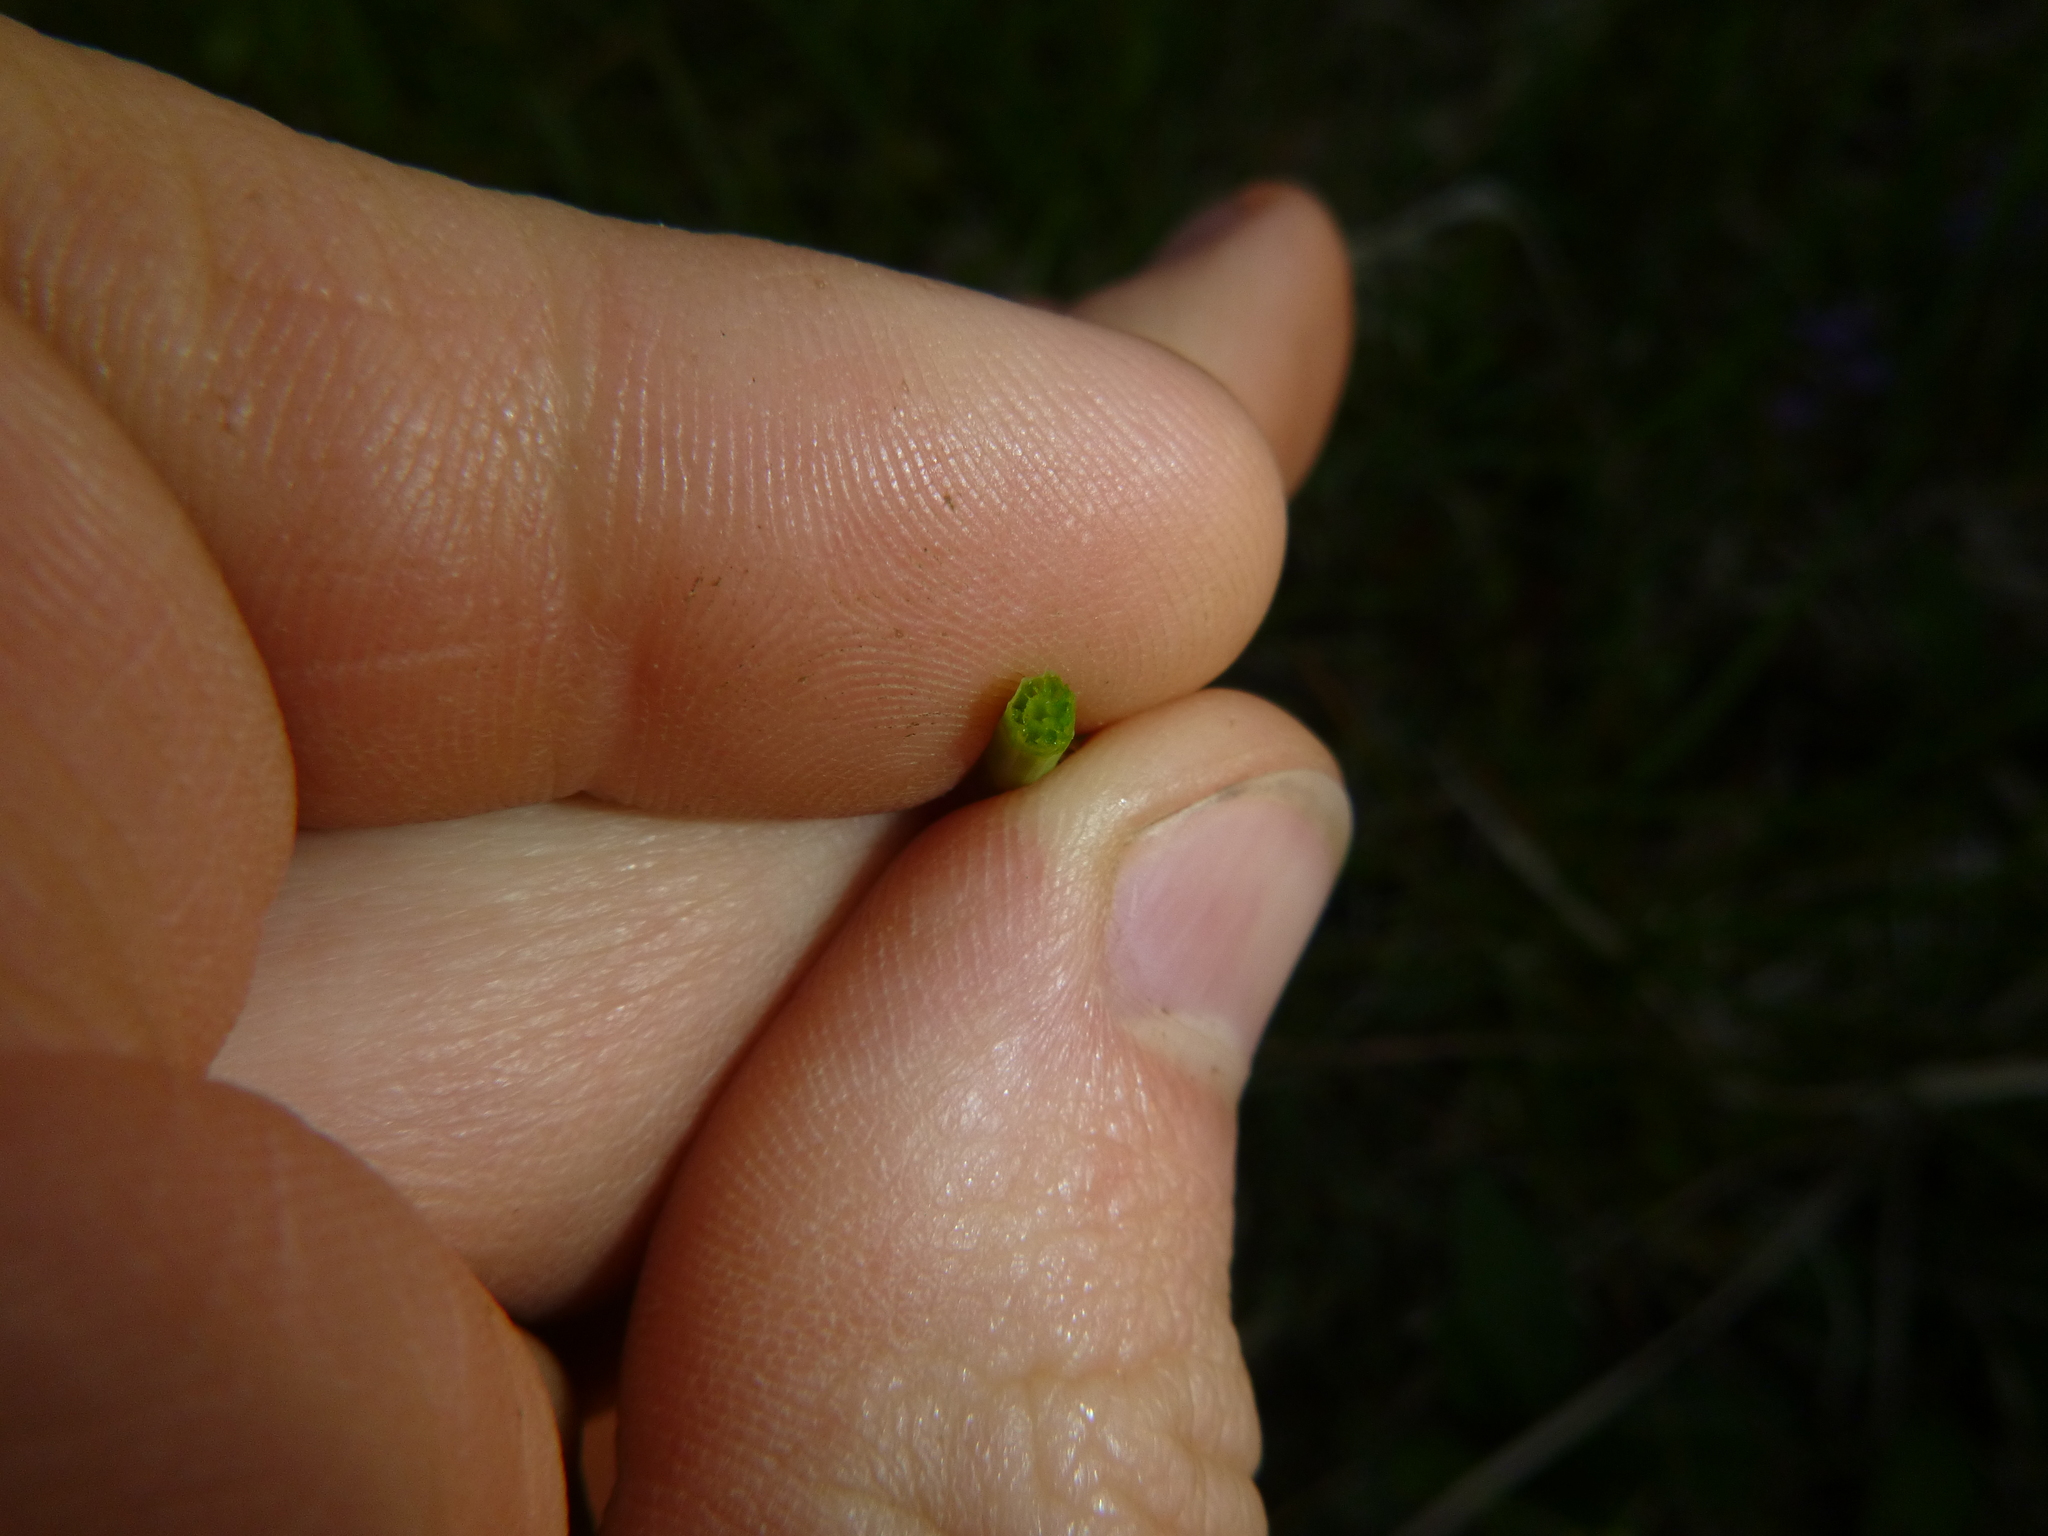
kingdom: Plantae
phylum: Tracheophyta
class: Polypodiopsida
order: Equisetales
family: Equisetaceae
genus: Equisetum
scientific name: Equisetum palustre
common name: Marsh horsetail
